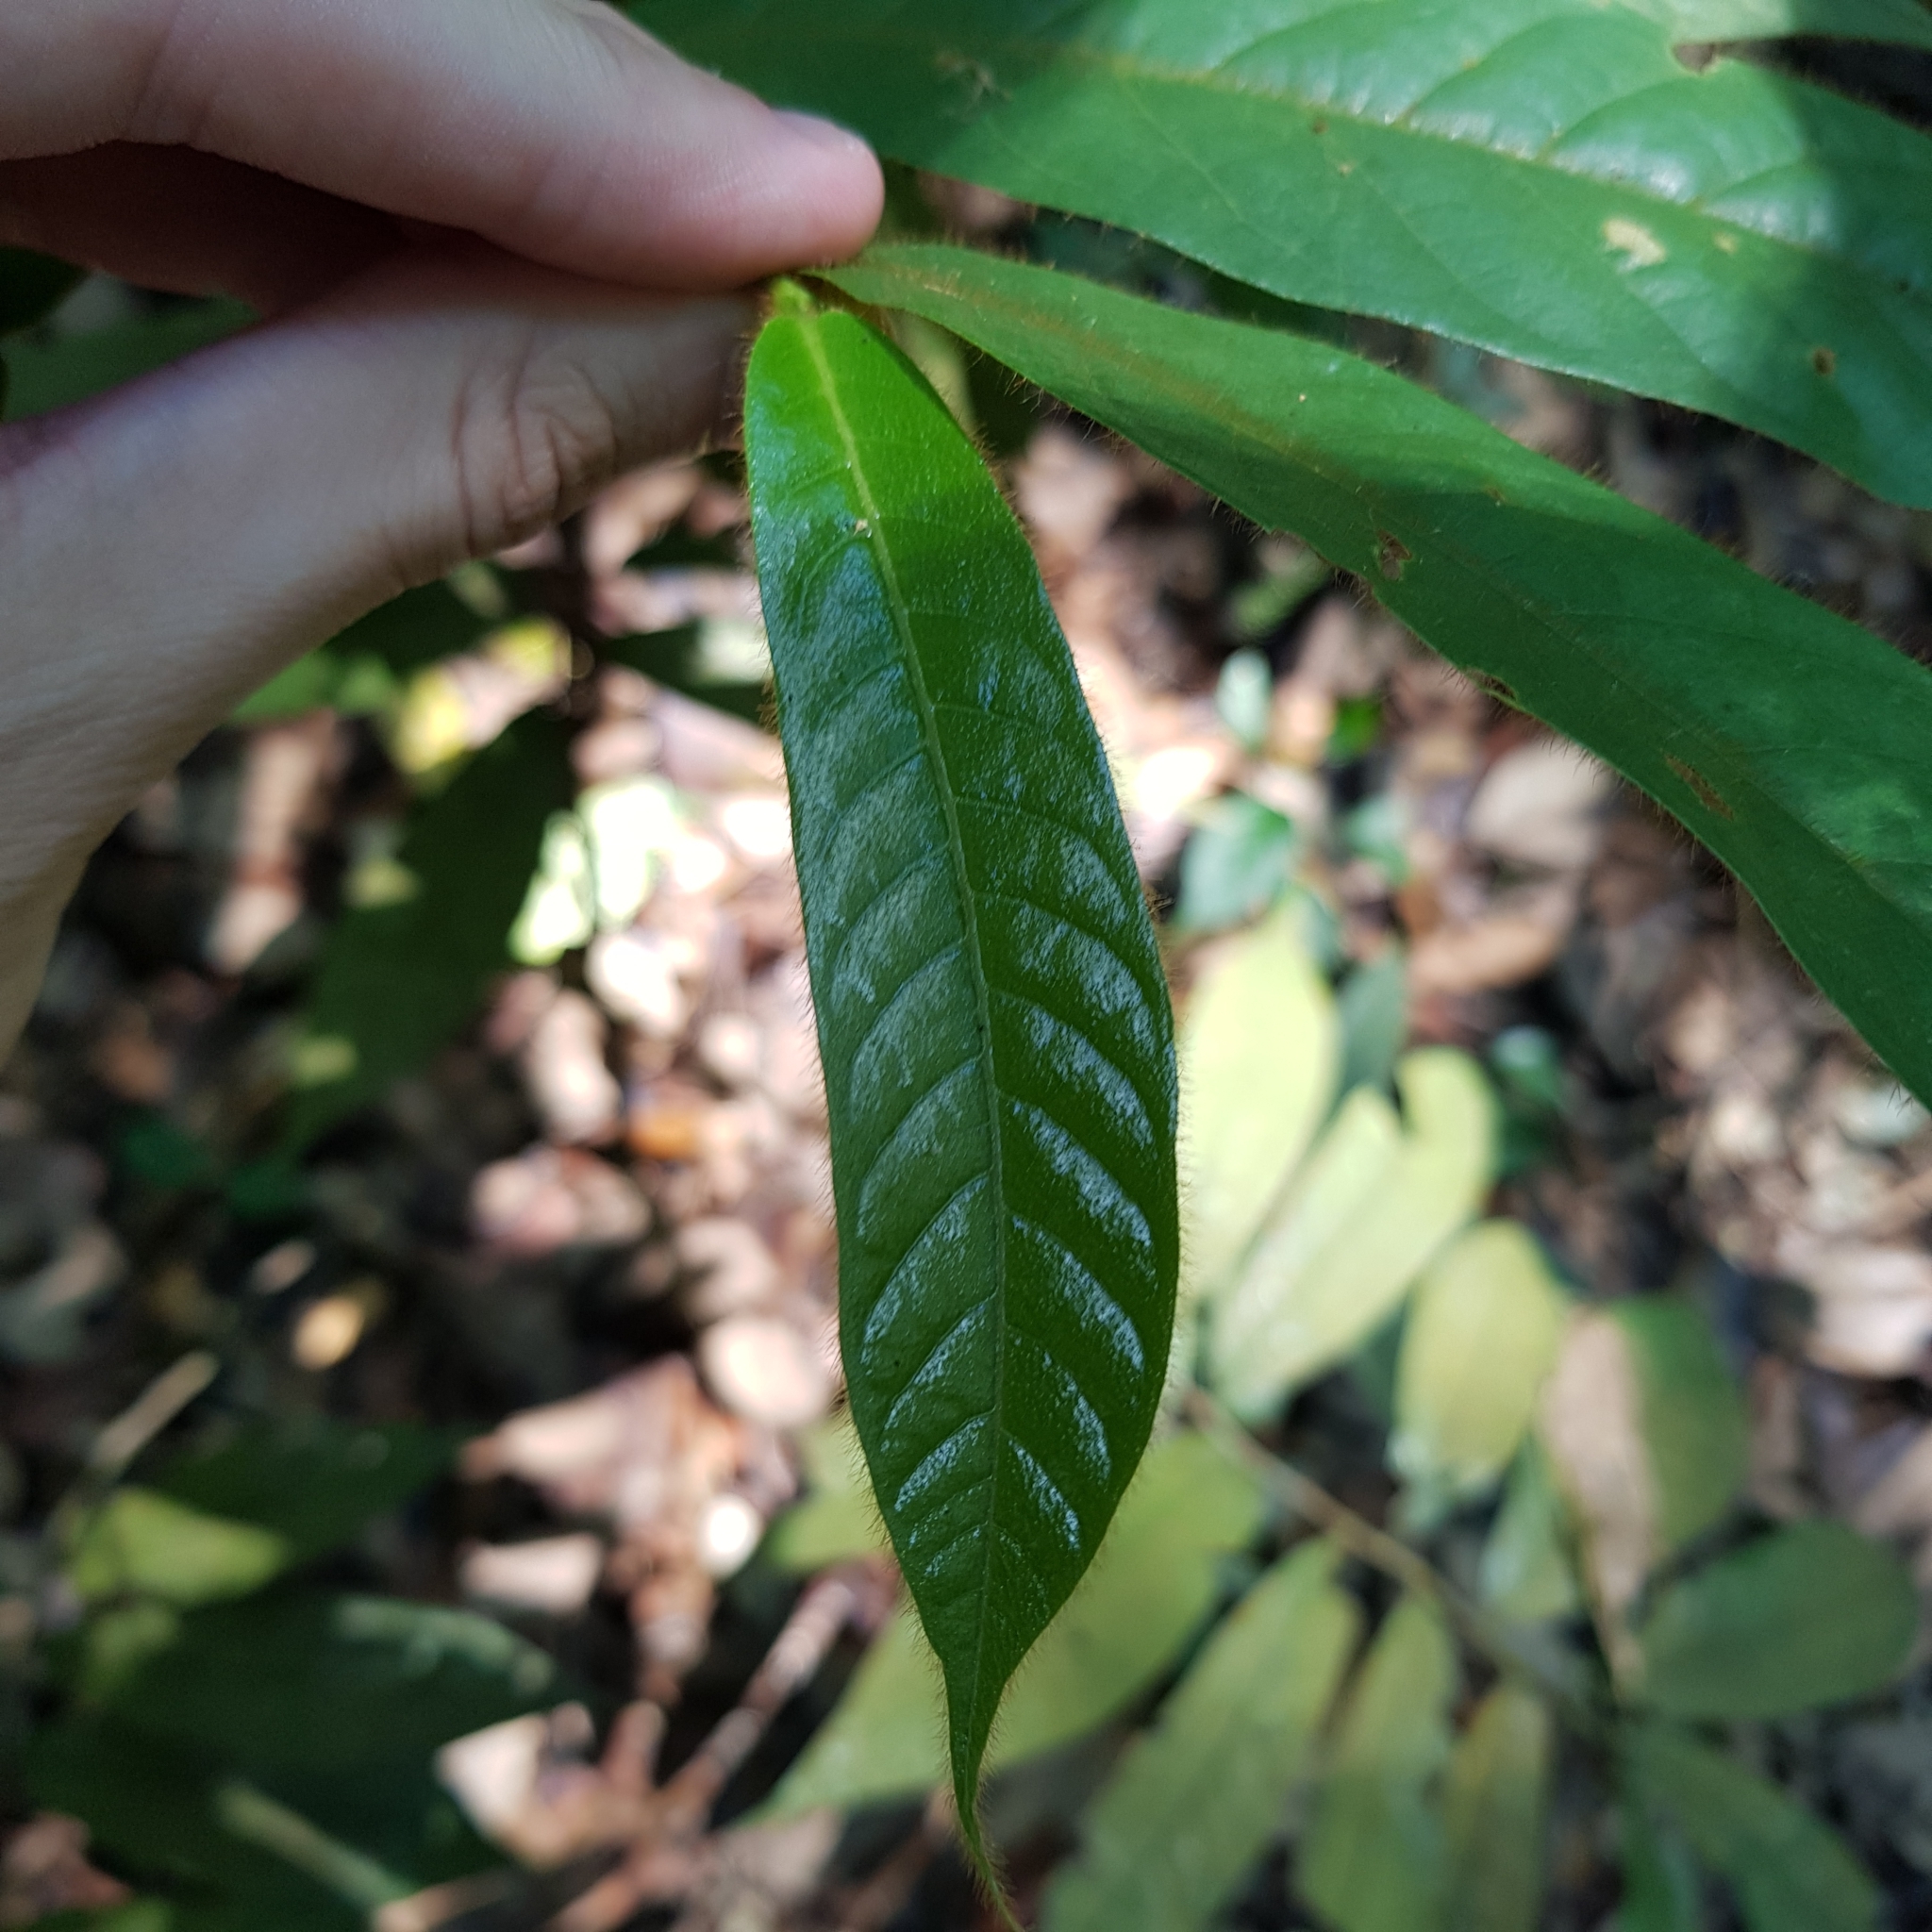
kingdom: Plantae
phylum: Tracheophyta
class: Magnoliopsida
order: Magnoliales
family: Annonaceae
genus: Uvaria
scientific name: Uvaria hirsuta
